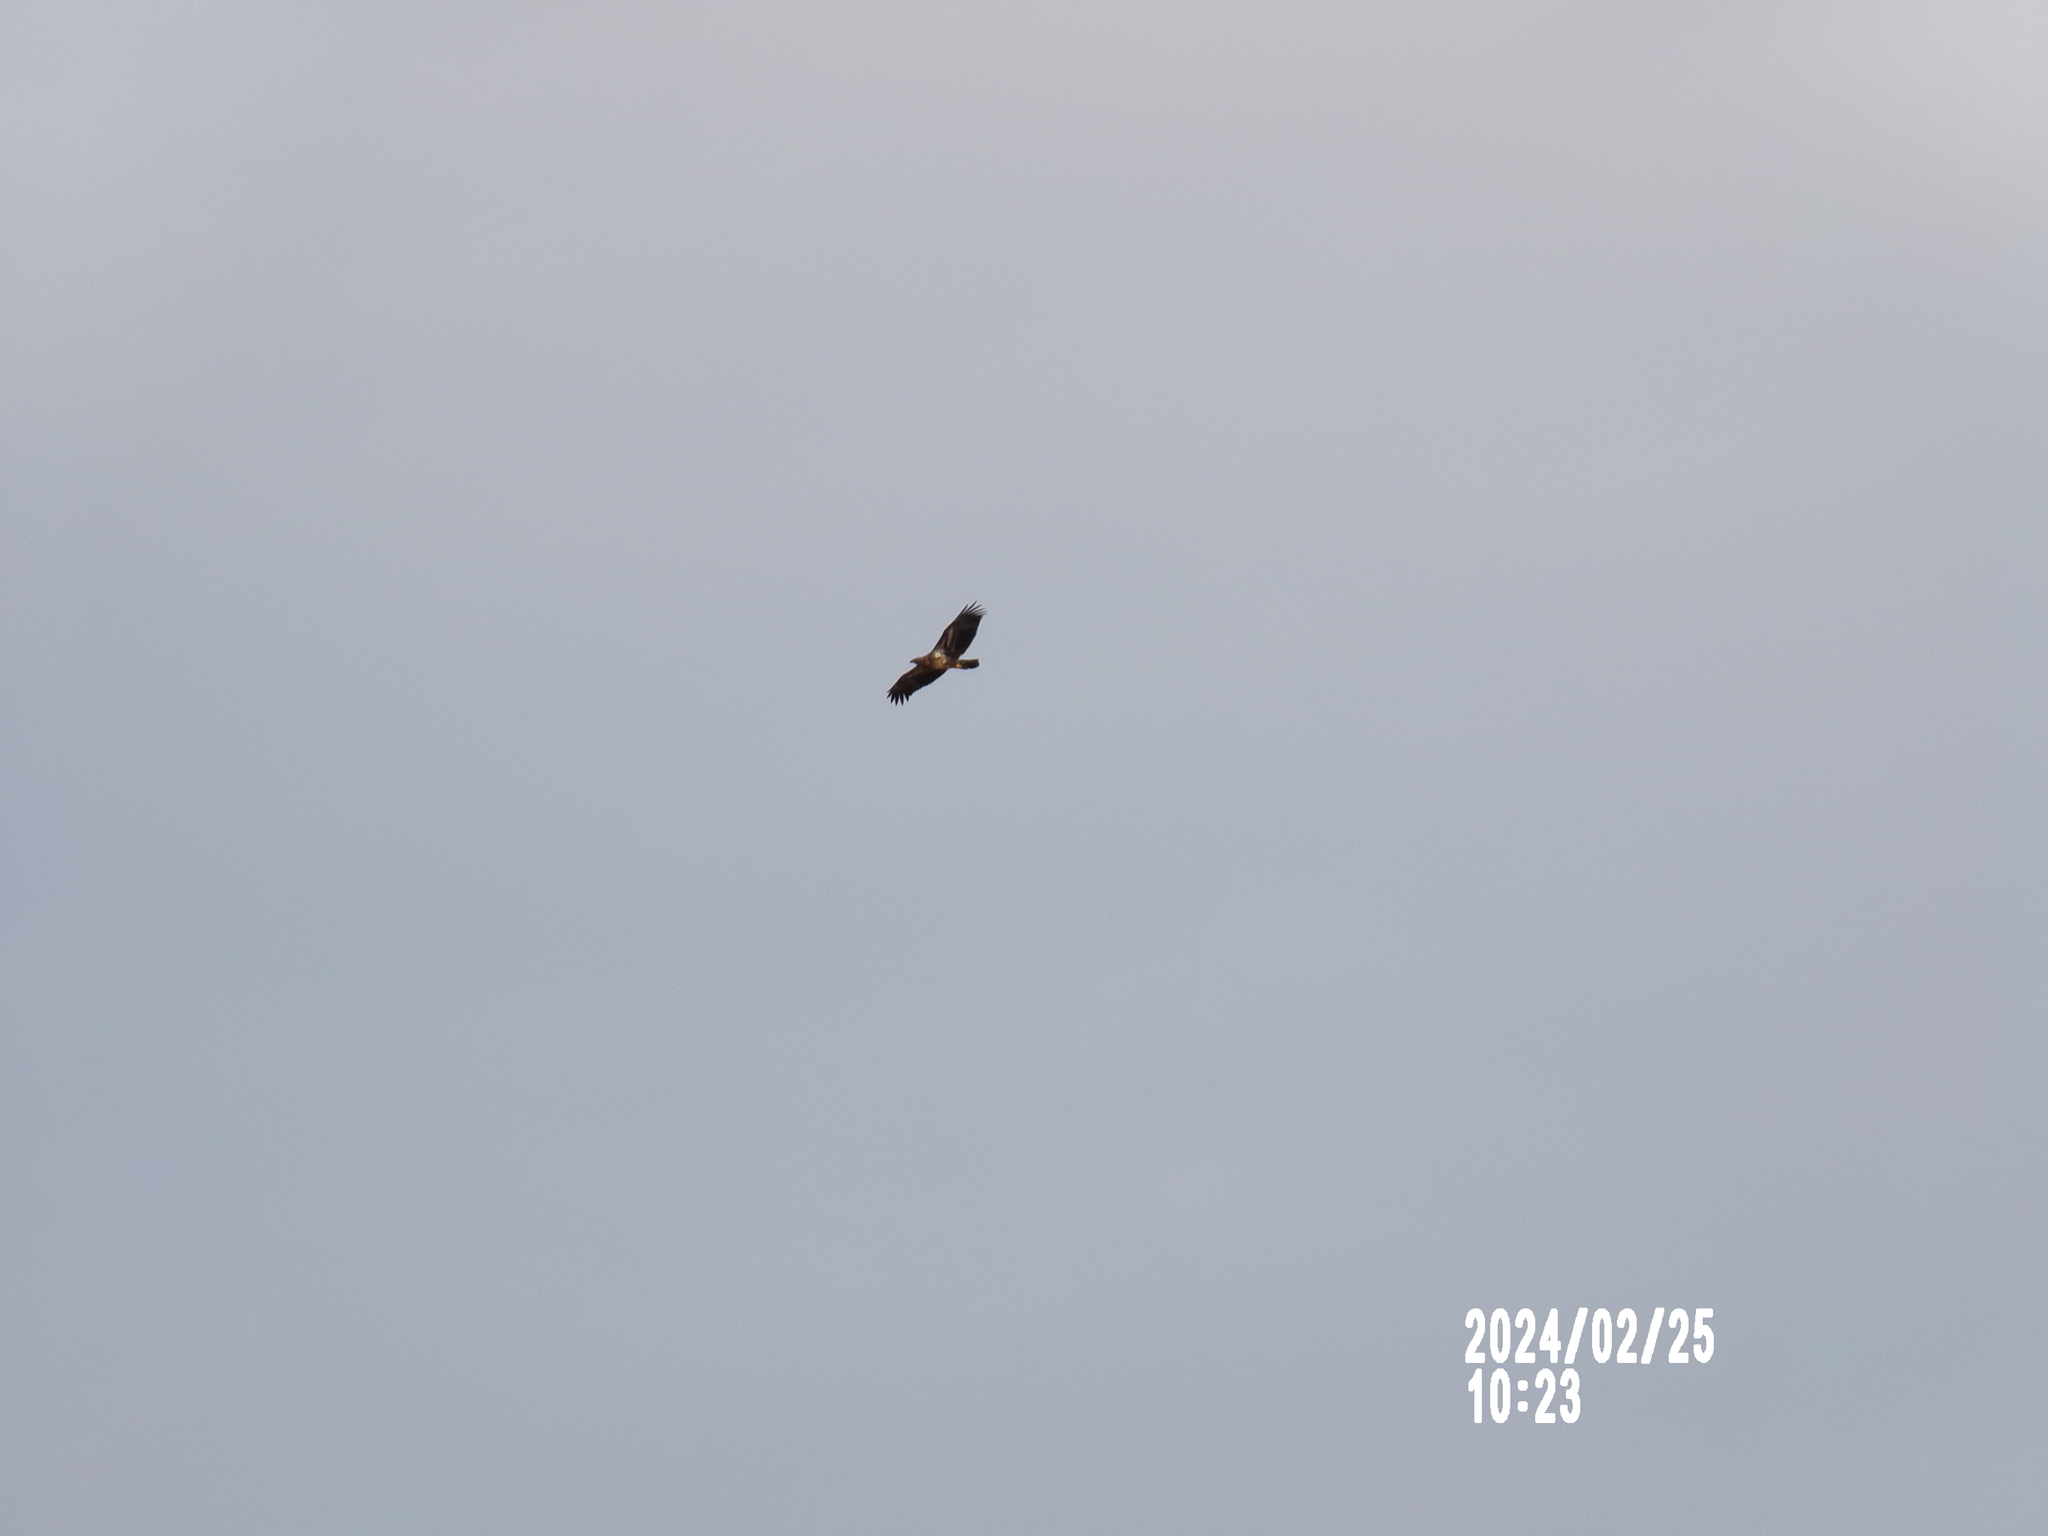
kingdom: Animalia
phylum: Chordata
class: Aves
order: Accipitriformes
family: Accipitridae
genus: Haliaeetus
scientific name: Haliaeetus leucocephalus
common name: Bald eagle
